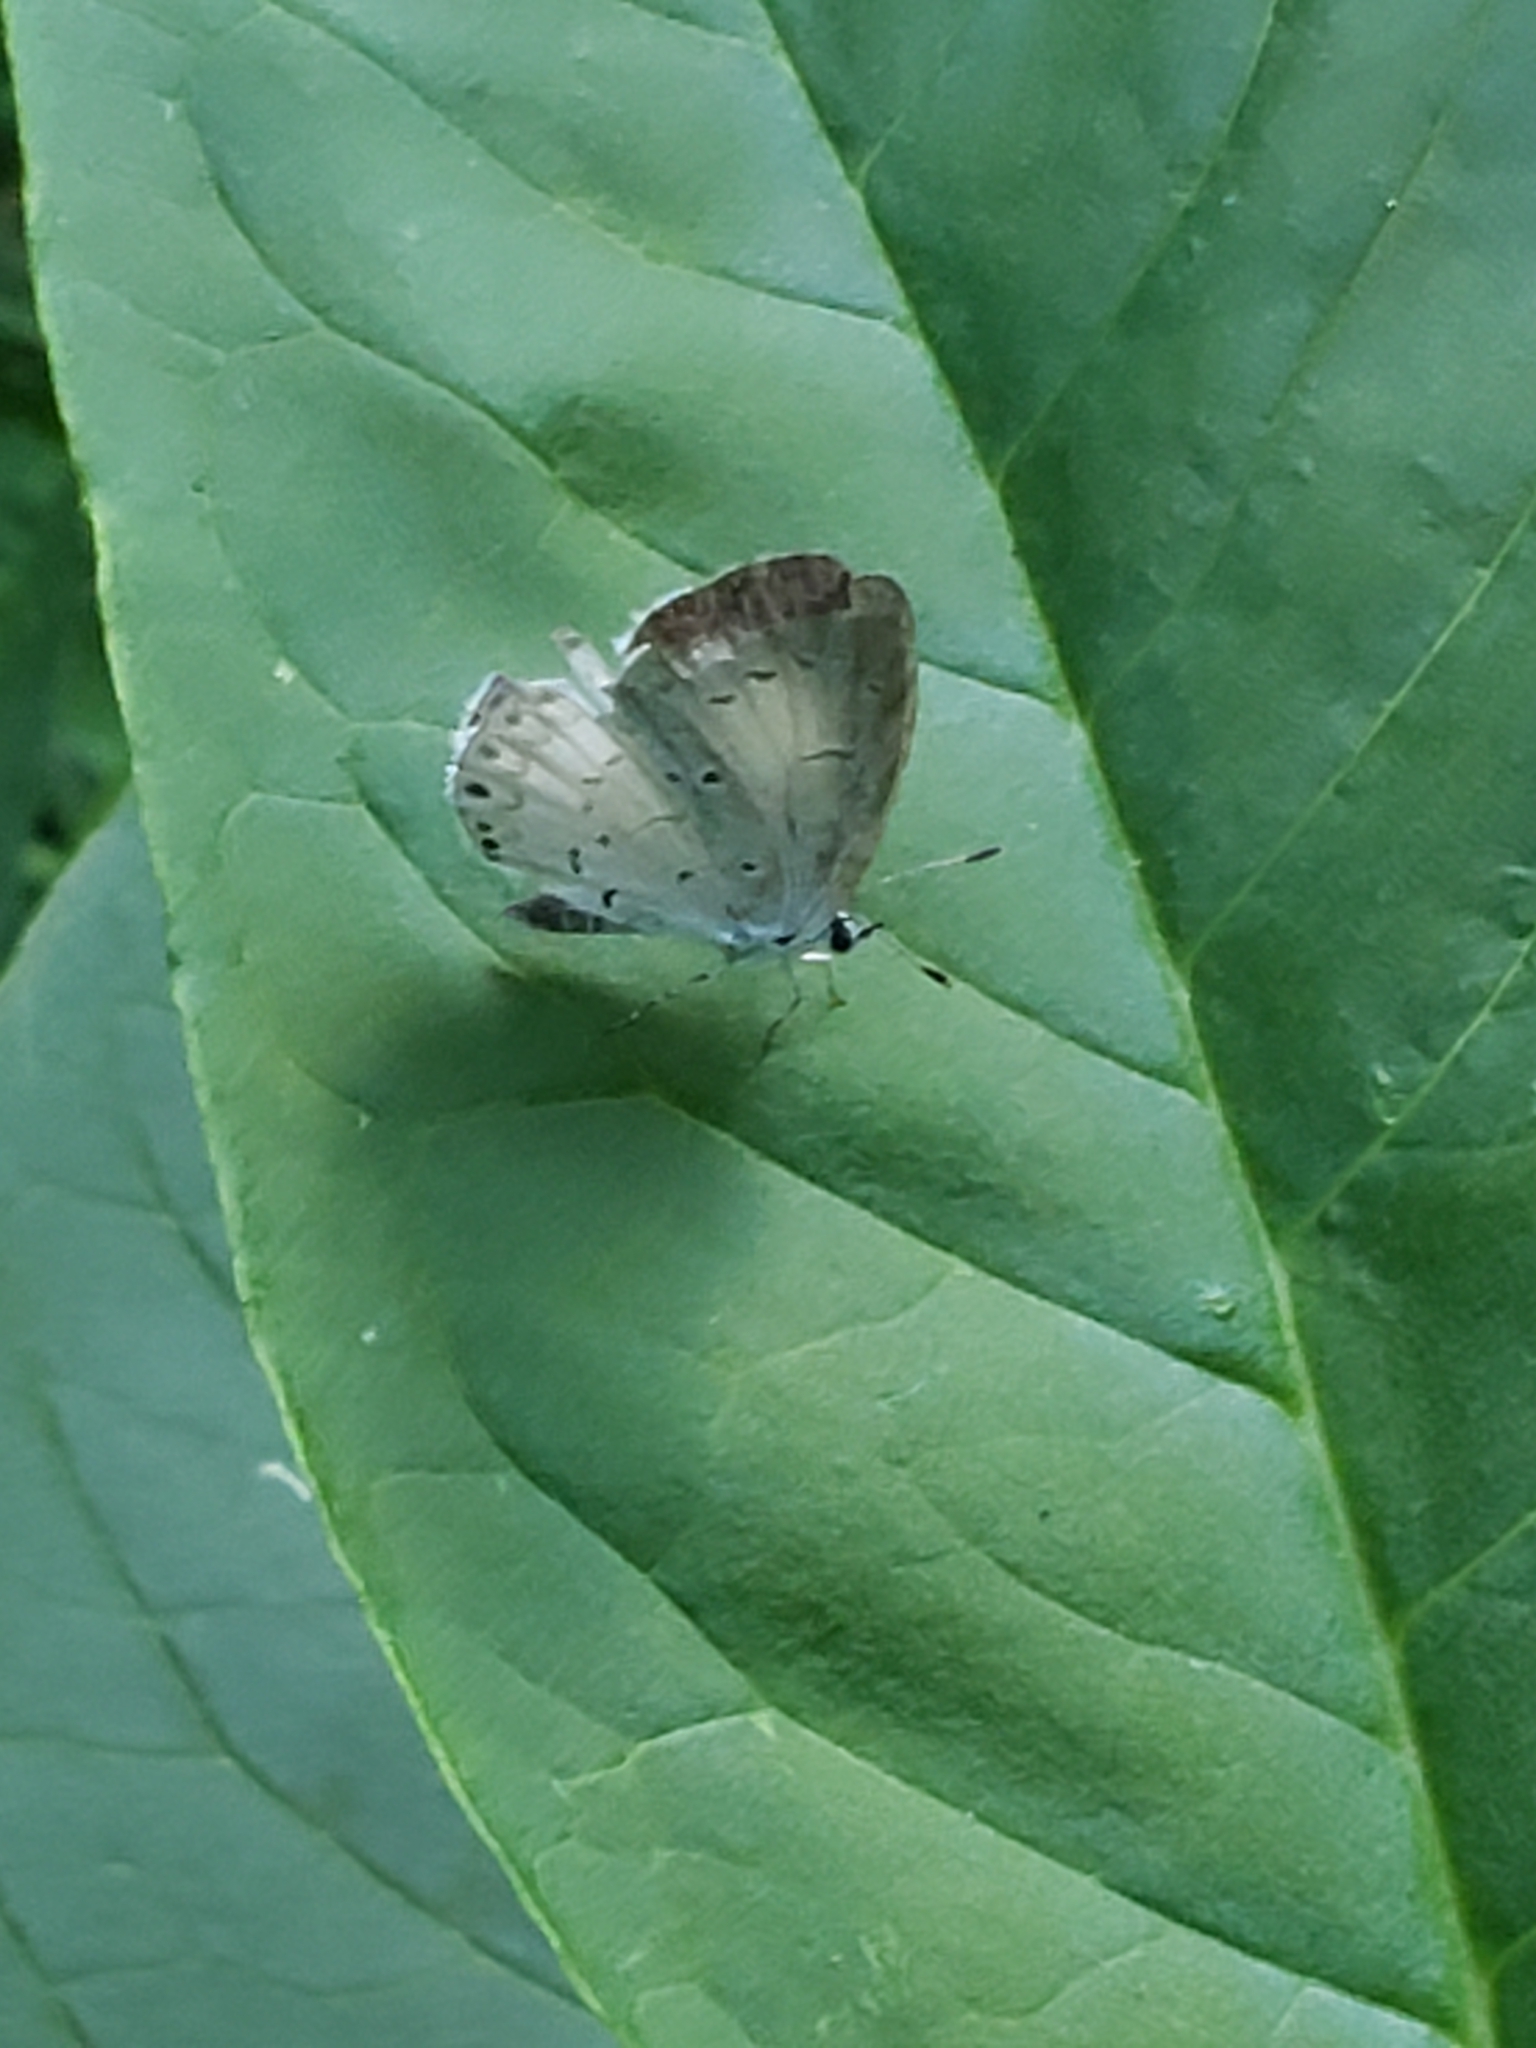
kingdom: Animalia
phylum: Arthropoda
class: Insecta
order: Lepidoptera
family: Lycaenidae
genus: Cyaniris
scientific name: Cyaniris neglecta
